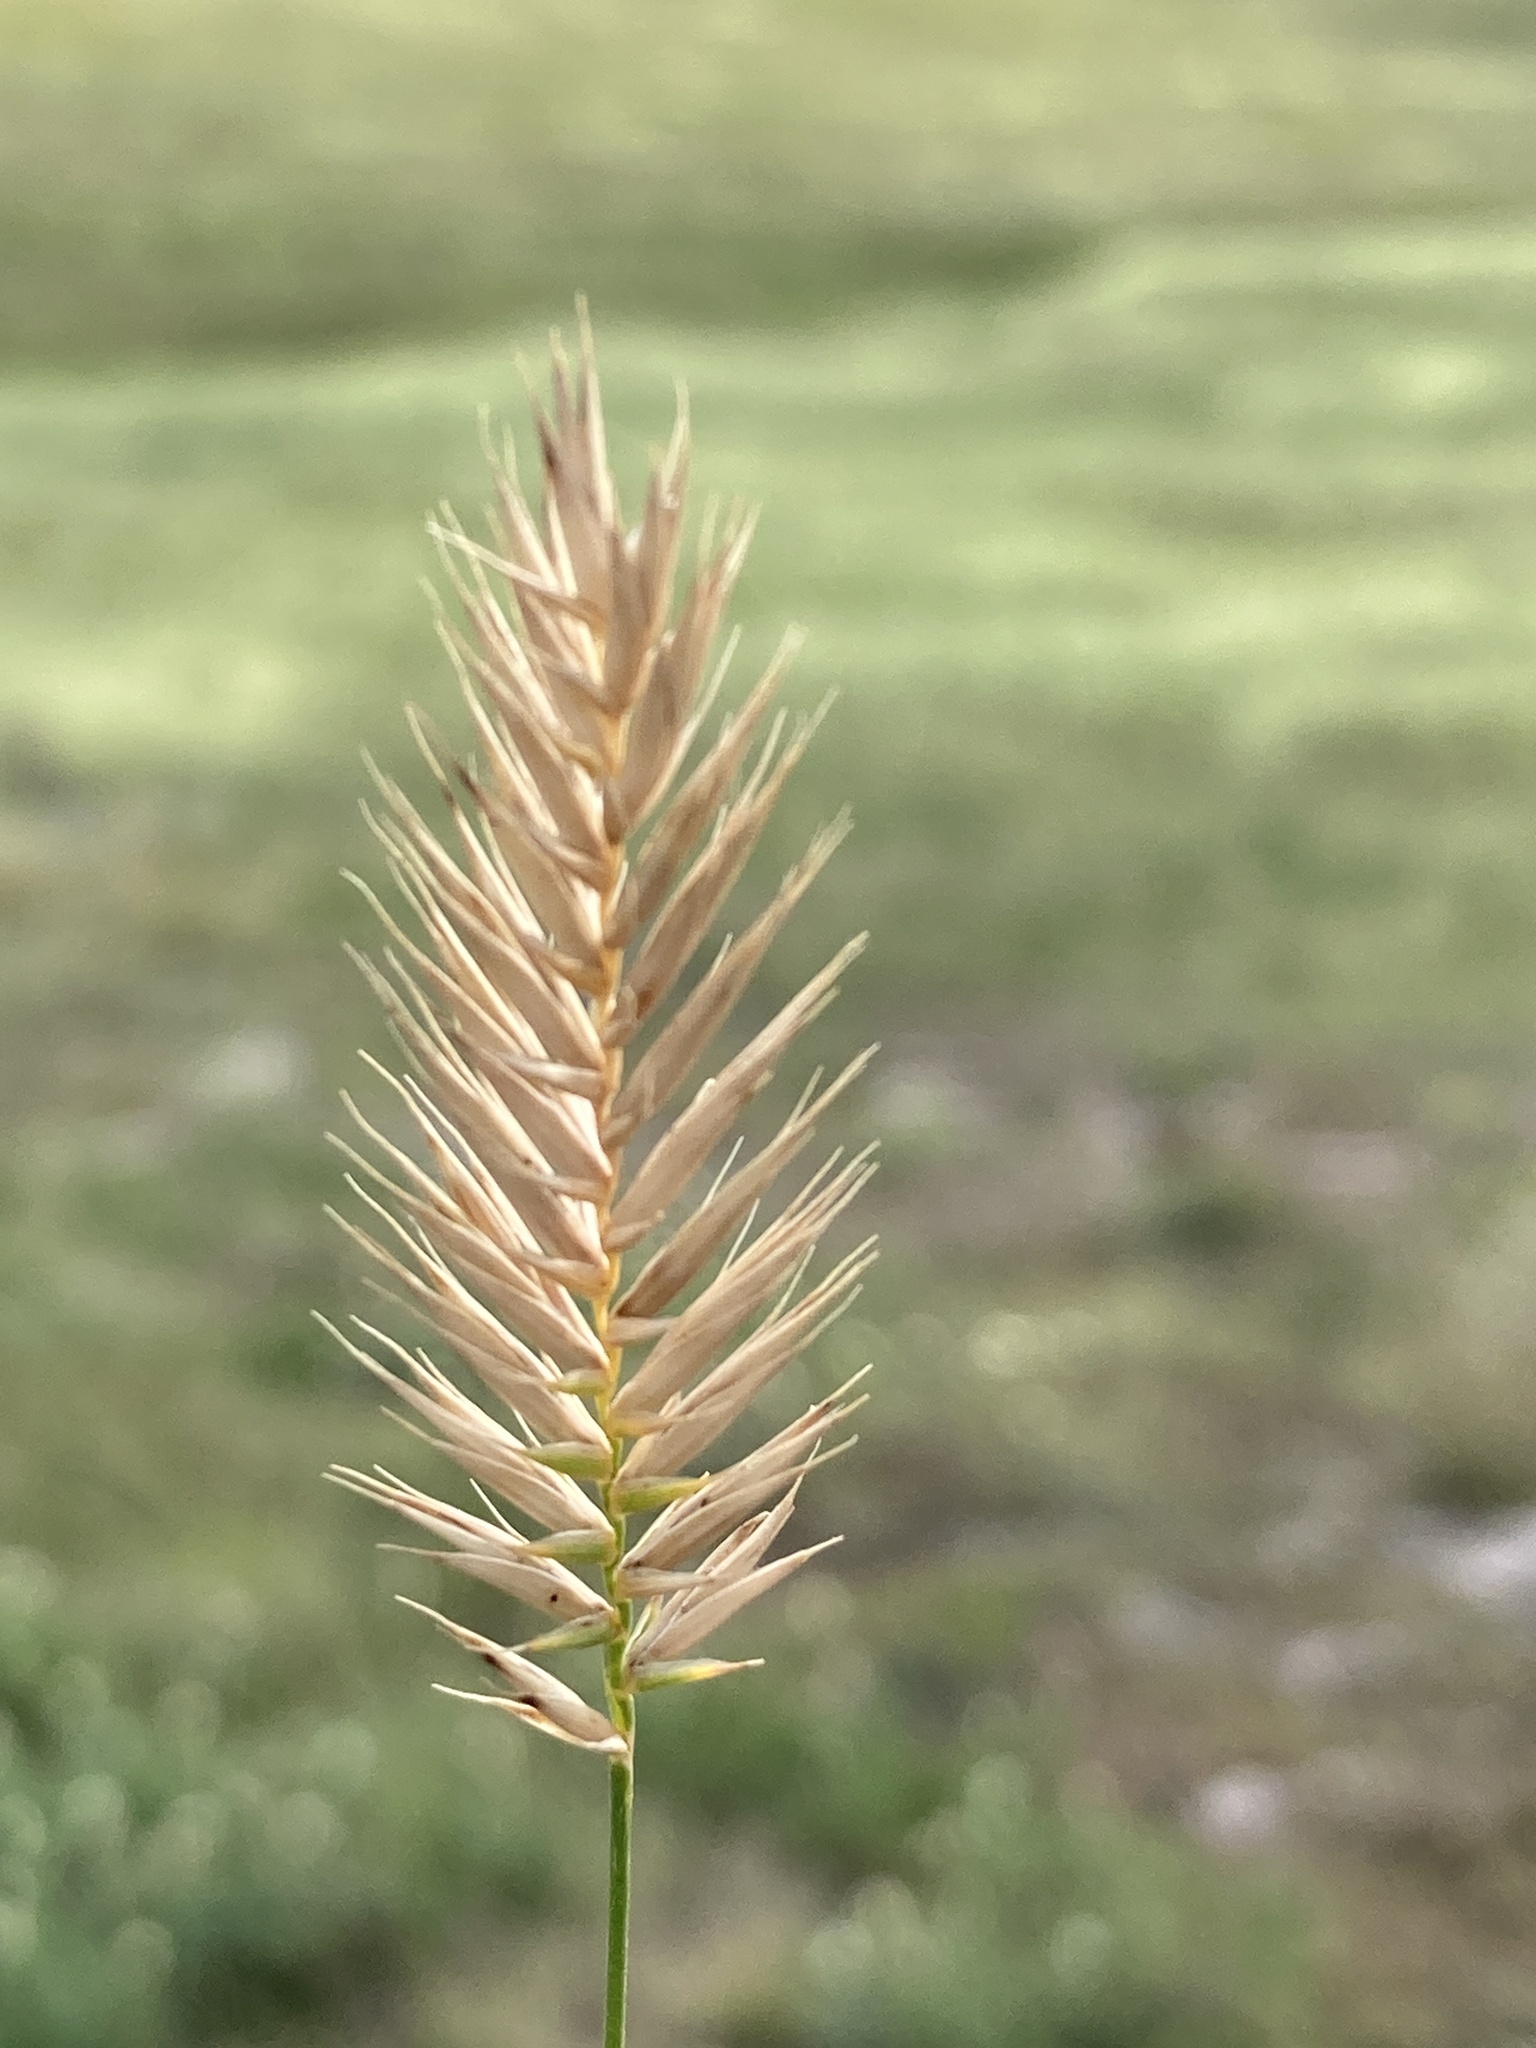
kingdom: Plantae
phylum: Tracheophyta
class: Liliopsida
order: Poales
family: Poaceae
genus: Agropyron
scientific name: Agropyron cristatum
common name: Crested wheatgrass
